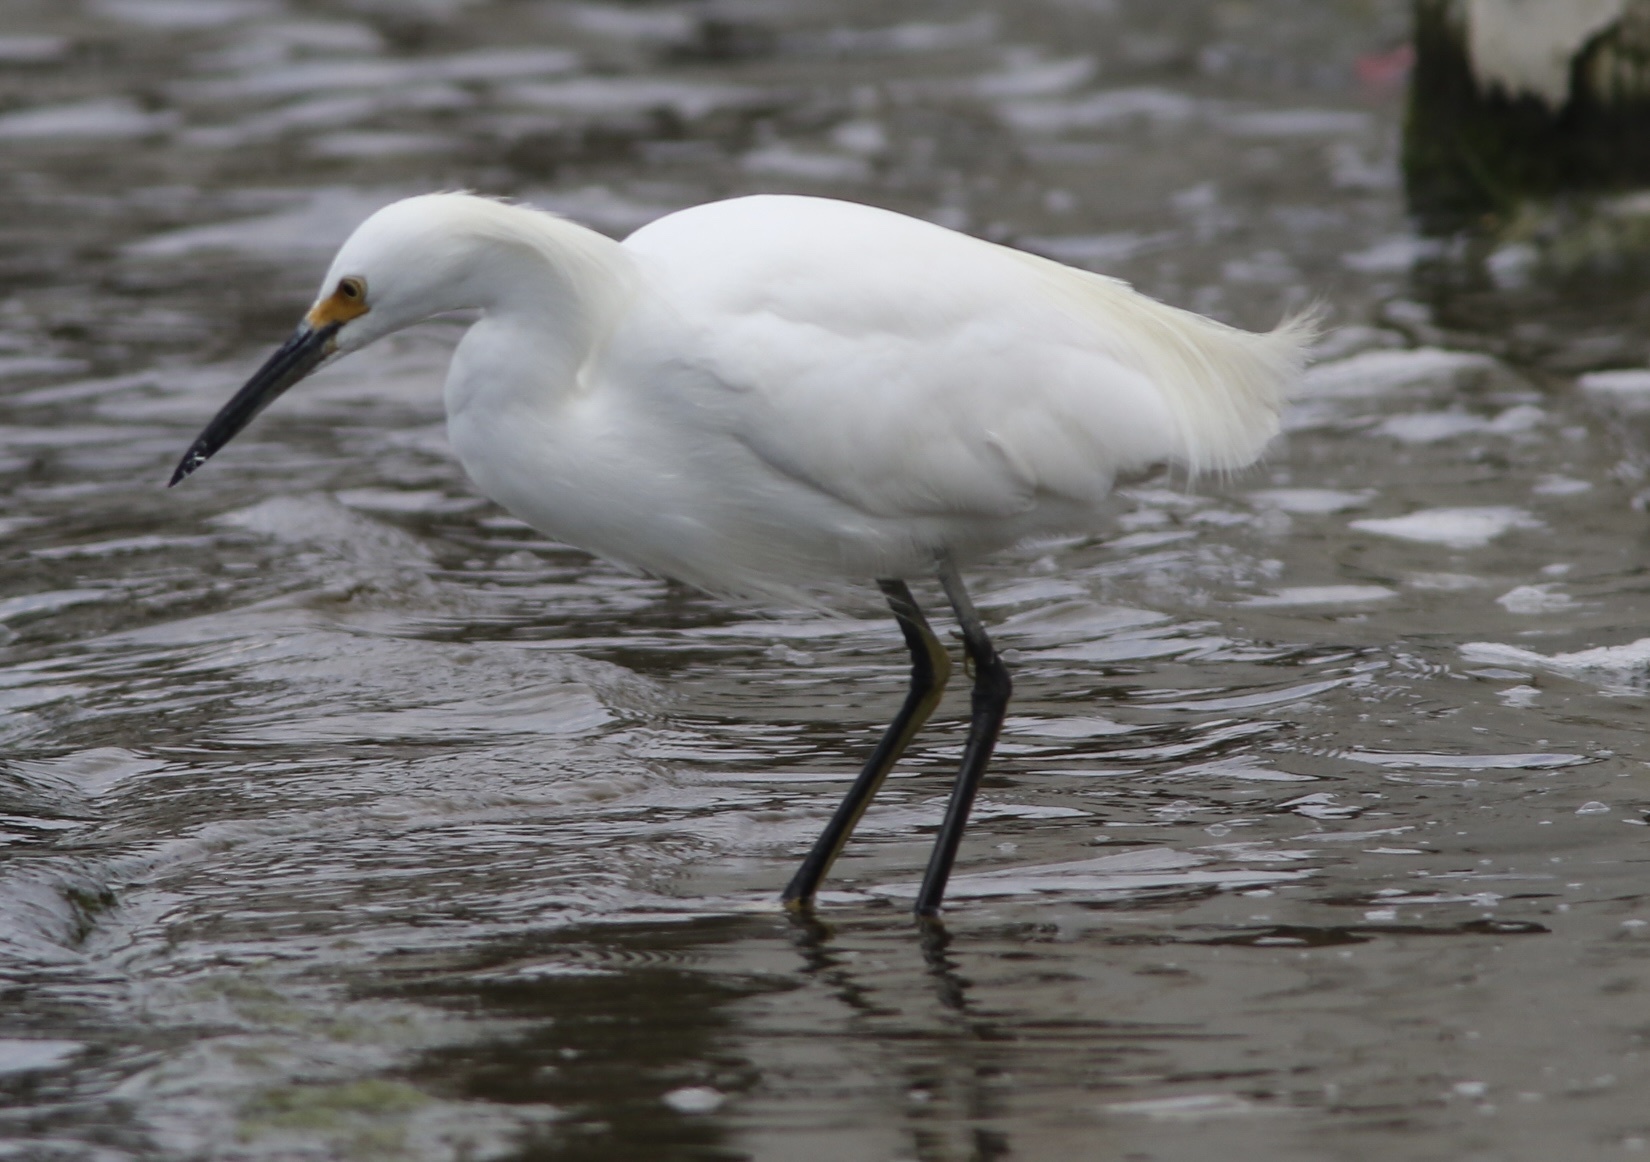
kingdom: Animalia
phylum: Chordata
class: Aves
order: Pelecaniformes
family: Ardeidae
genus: Egretta
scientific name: Egretta thula
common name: Snowy egret
